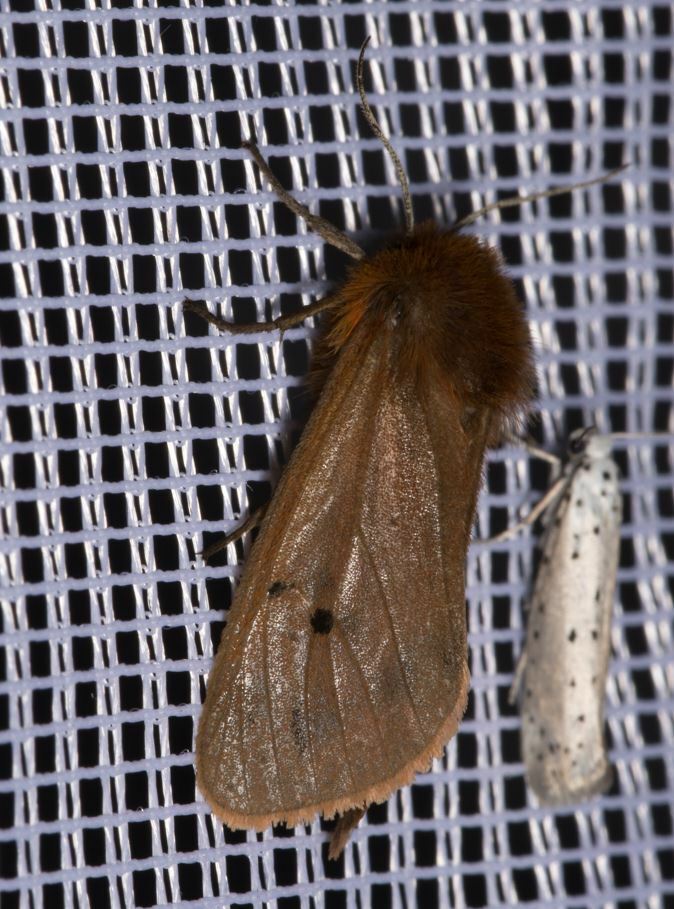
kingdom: Animalia
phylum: Arthropoda
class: Insecta
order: Lepidoptera
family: Erebidae
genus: Phragmatobia
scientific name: Phragmatobia fuliginosa
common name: Ruby tiger
